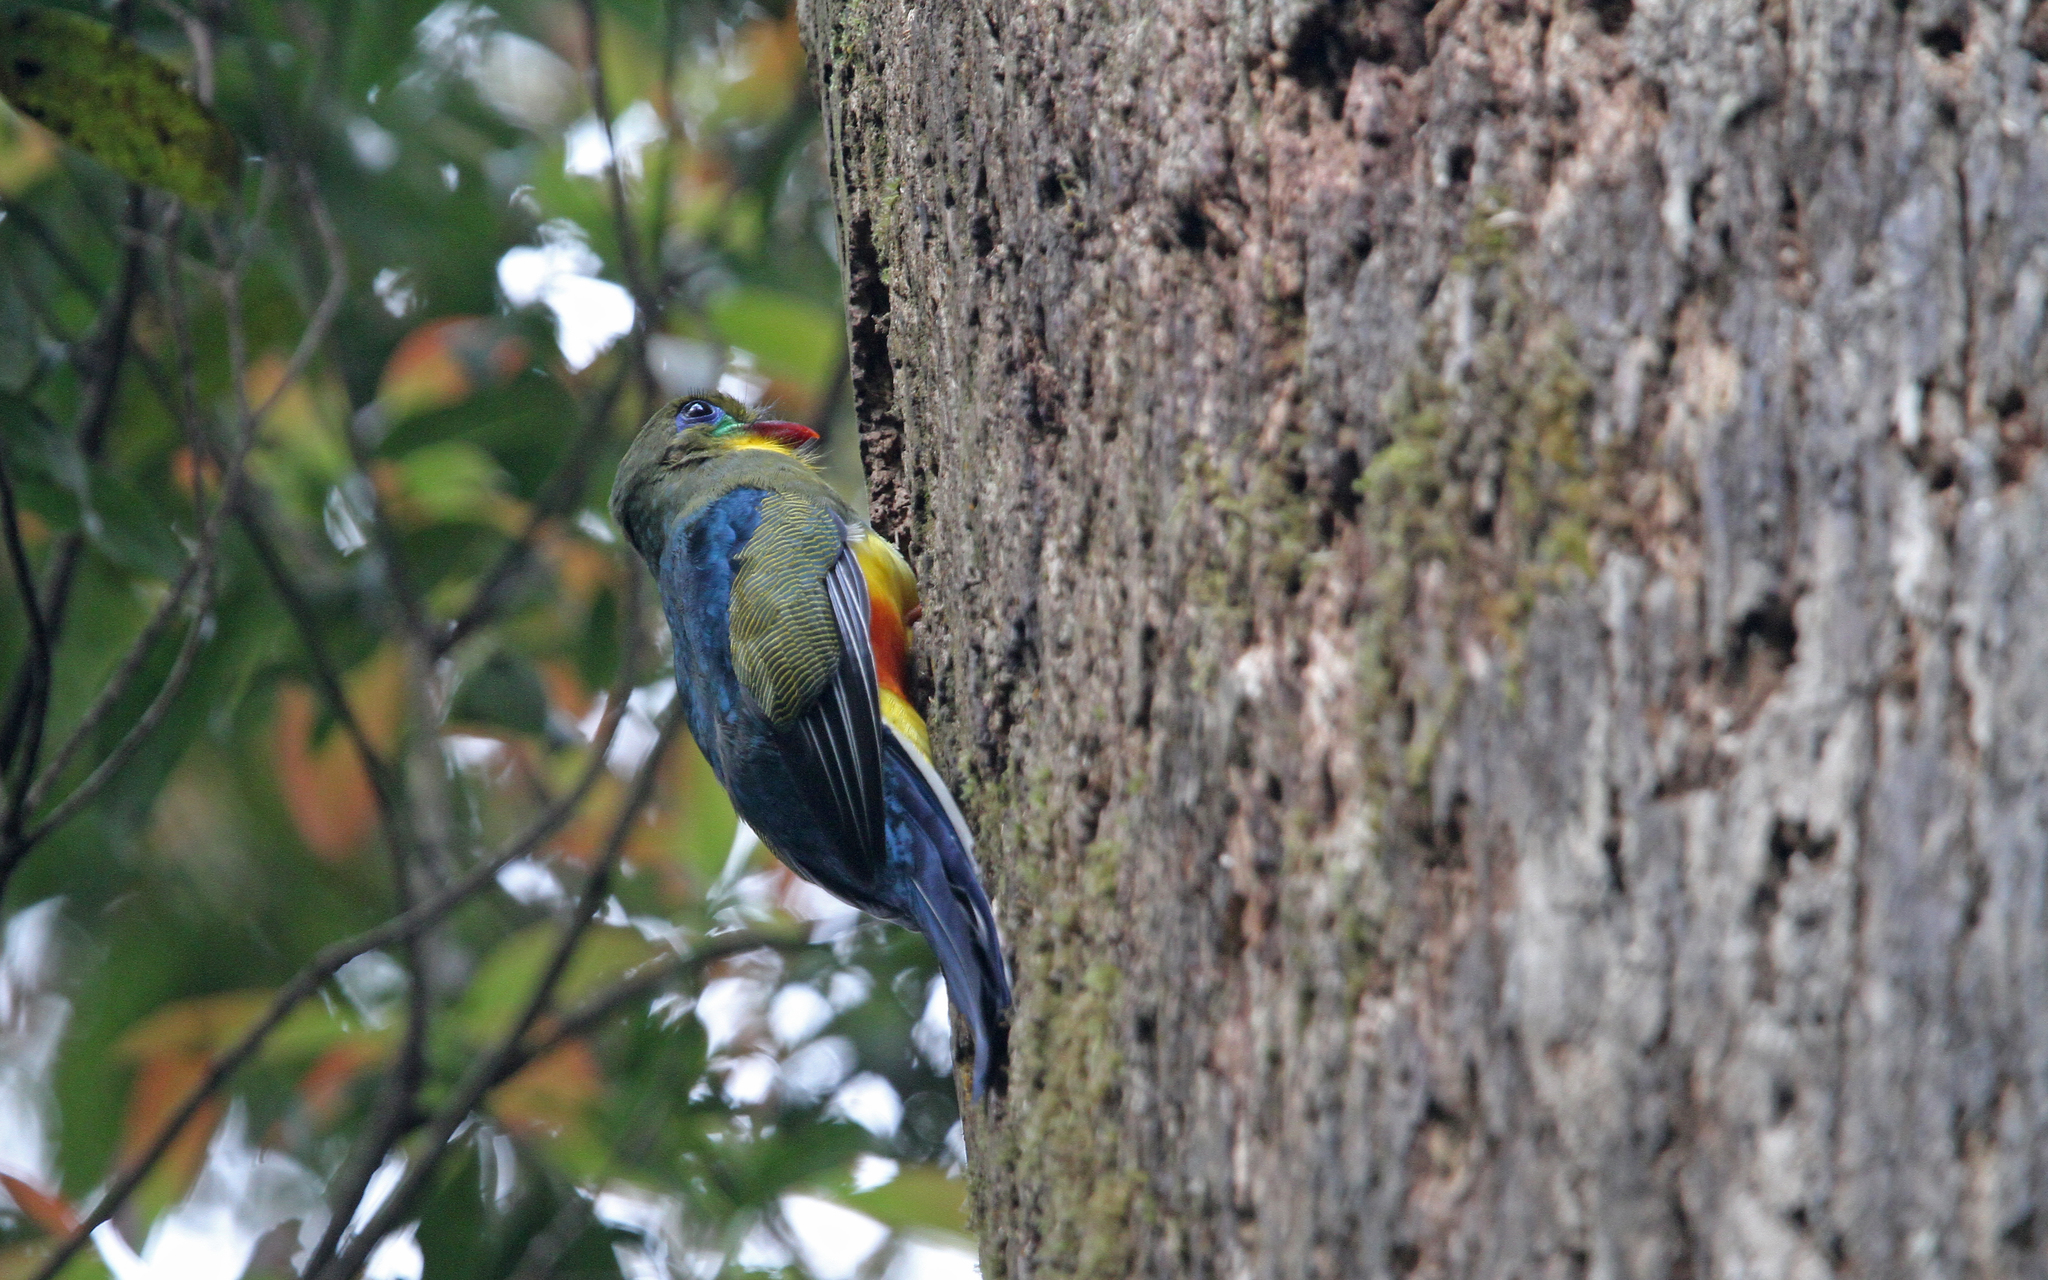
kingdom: Animalia
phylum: Chordata
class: Aves
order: Trogoniformes
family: Trogonidae
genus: Apalharpactes
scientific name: Apalharpactes reinwardtii
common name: Javan trogon
